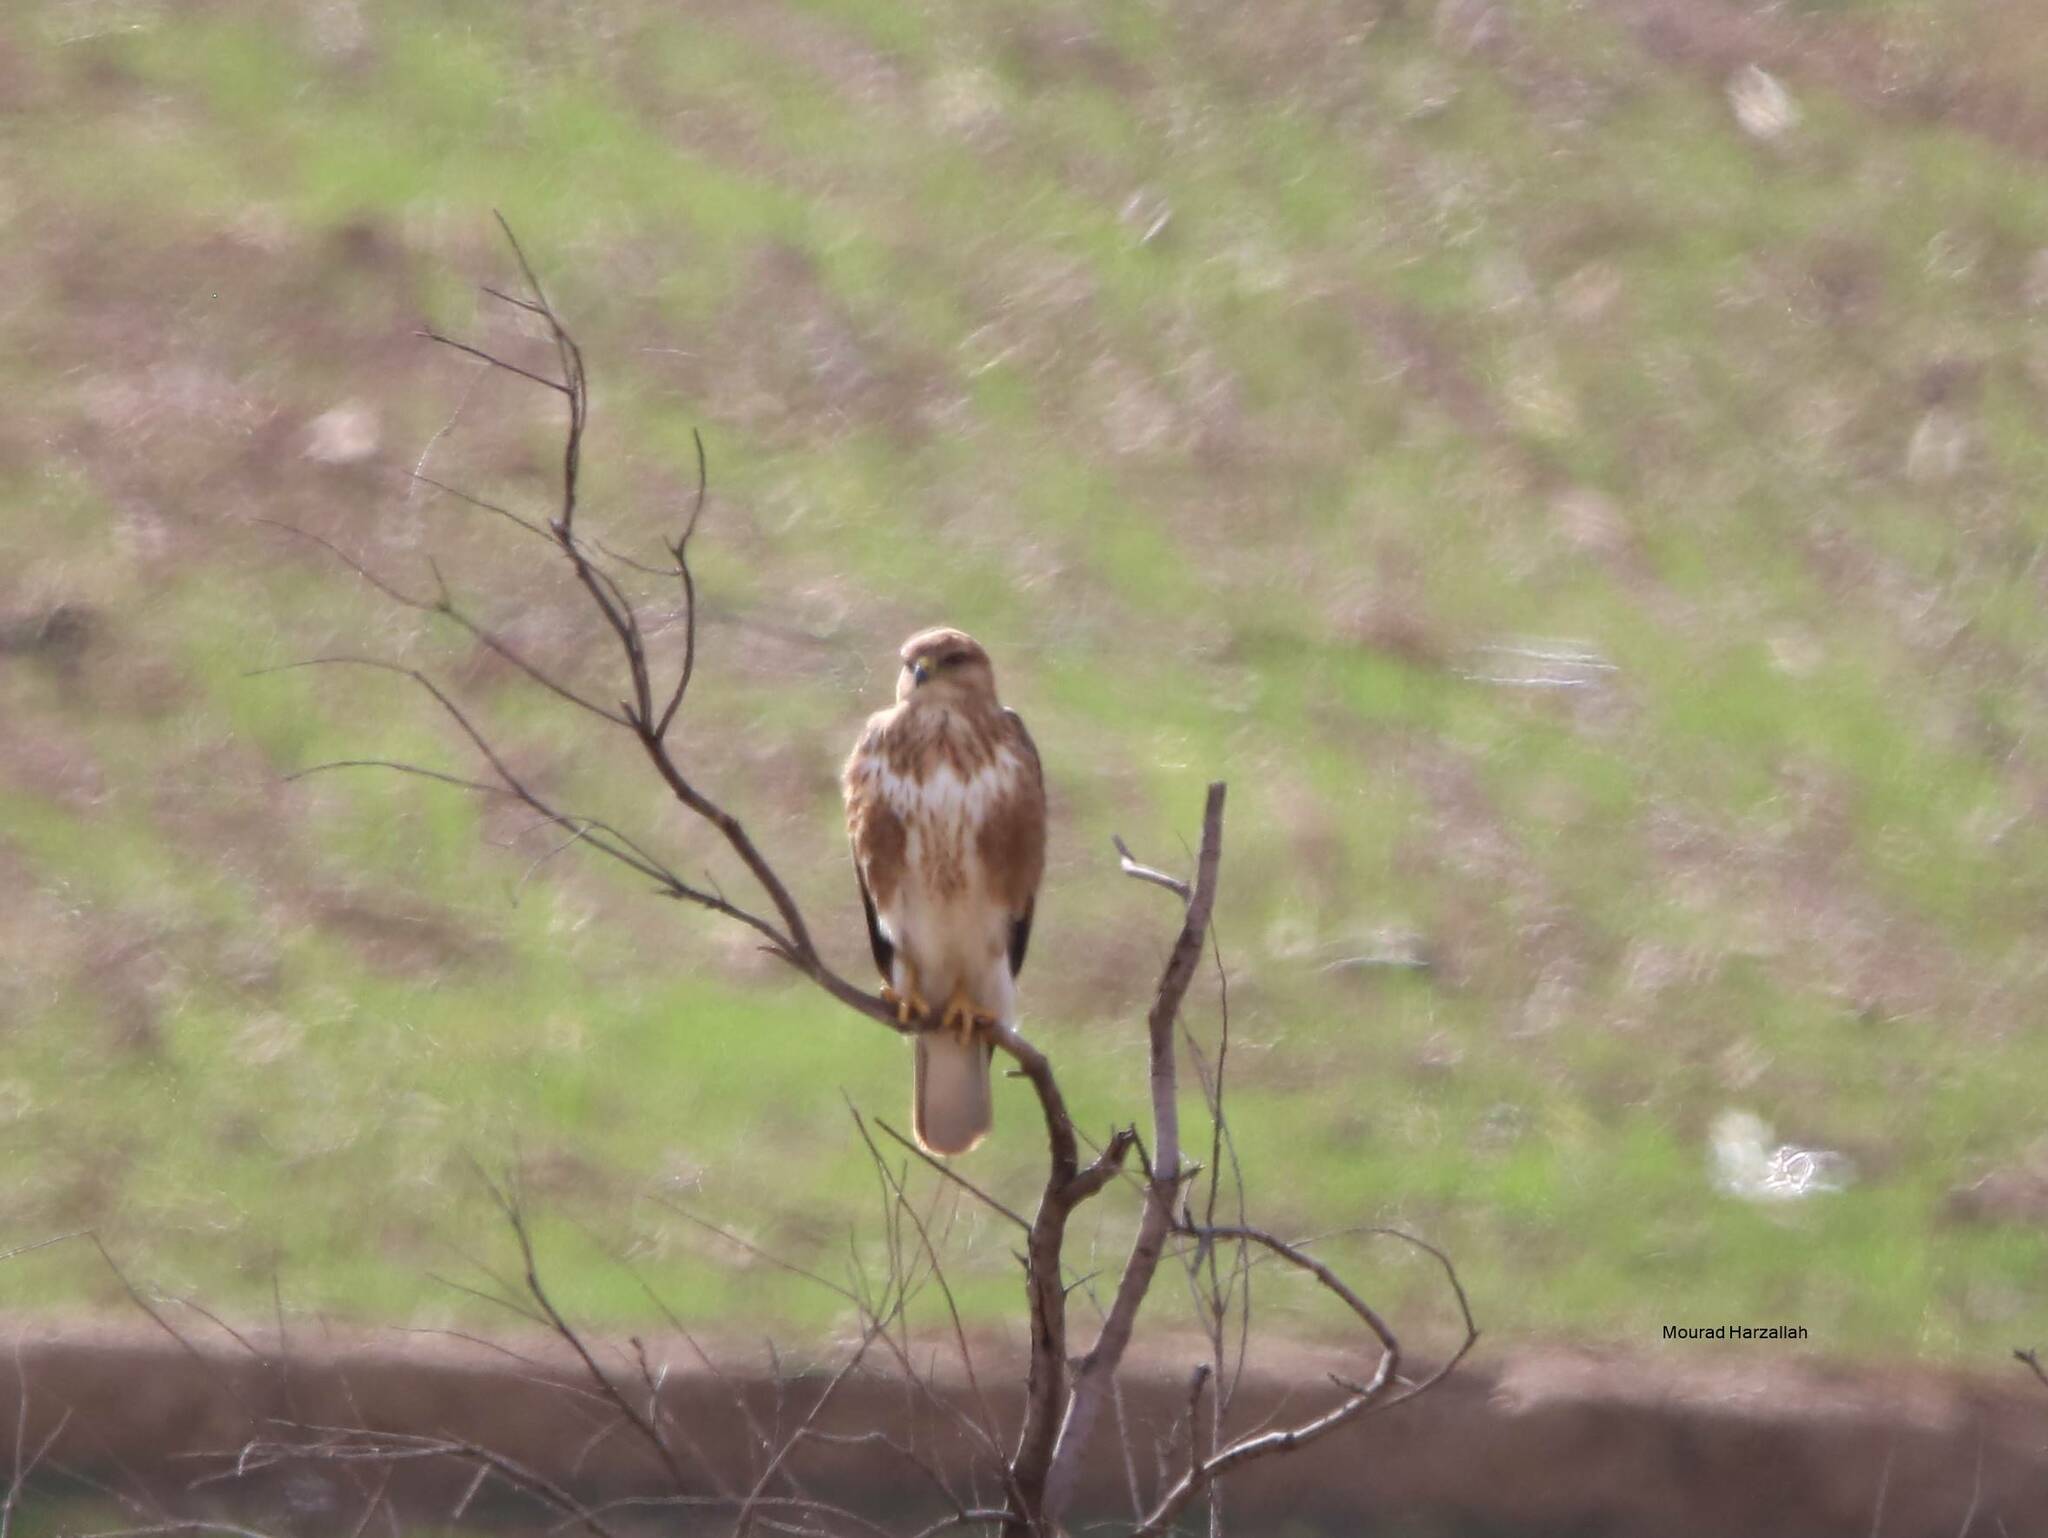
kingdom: Animalia
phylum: Chordata
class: Aves
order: Accipitriformes
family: Accipitridae
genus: Buteo
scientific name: Buteo rufinus
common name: Long-legged buzzard
